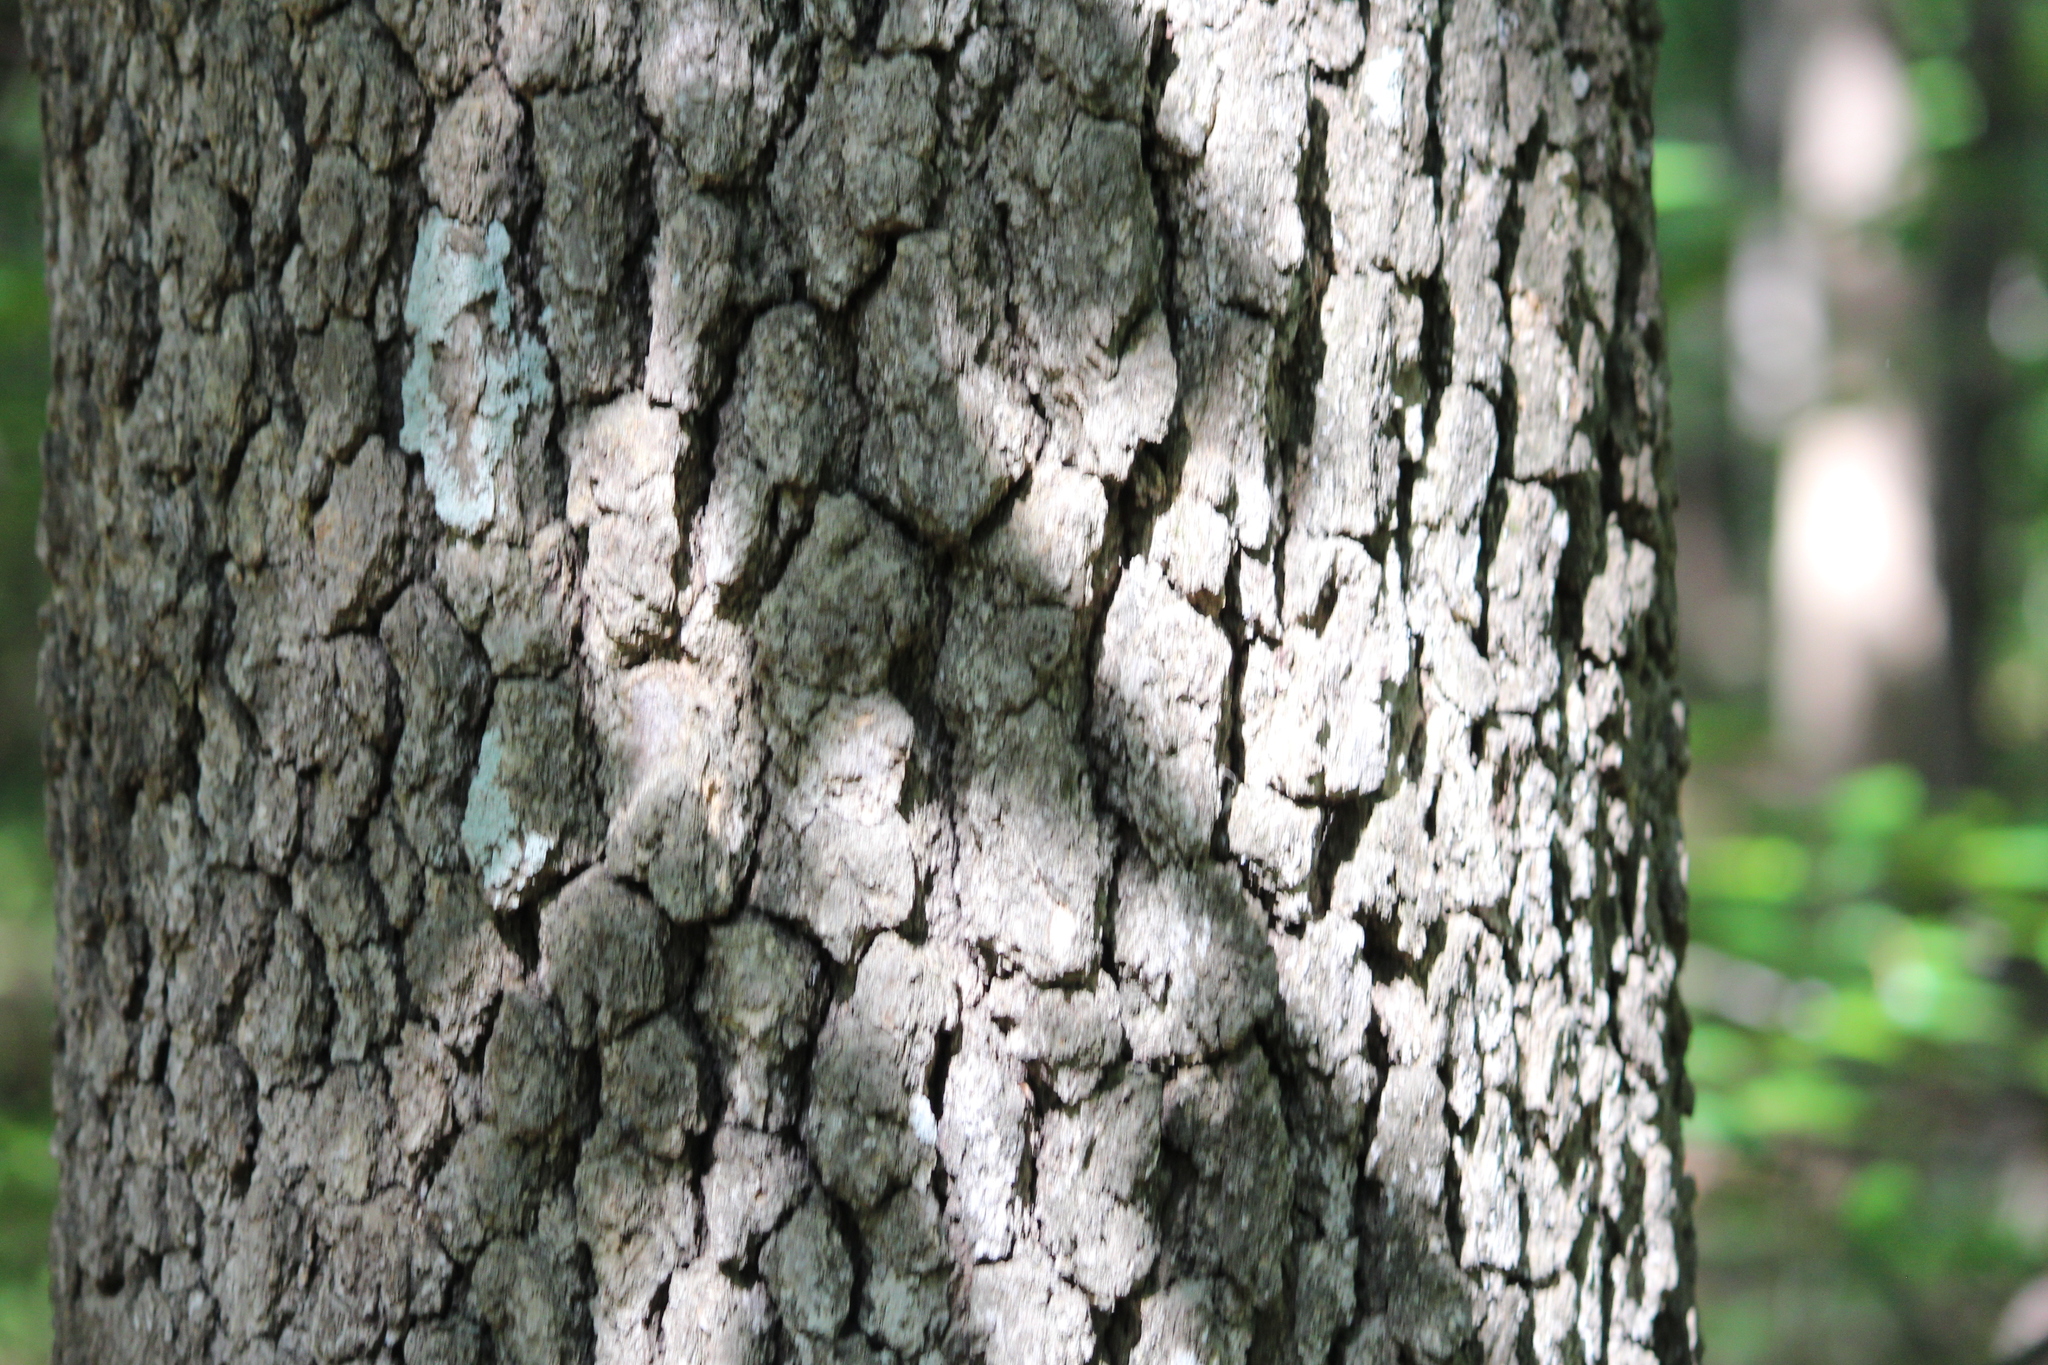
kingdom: Plantae
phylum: Tracheophyta
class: Magnoliopsida
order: Cornales
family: Nyssaceae
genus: Nyssa
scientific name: Nyssa sylvatica
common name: Black tupelo
